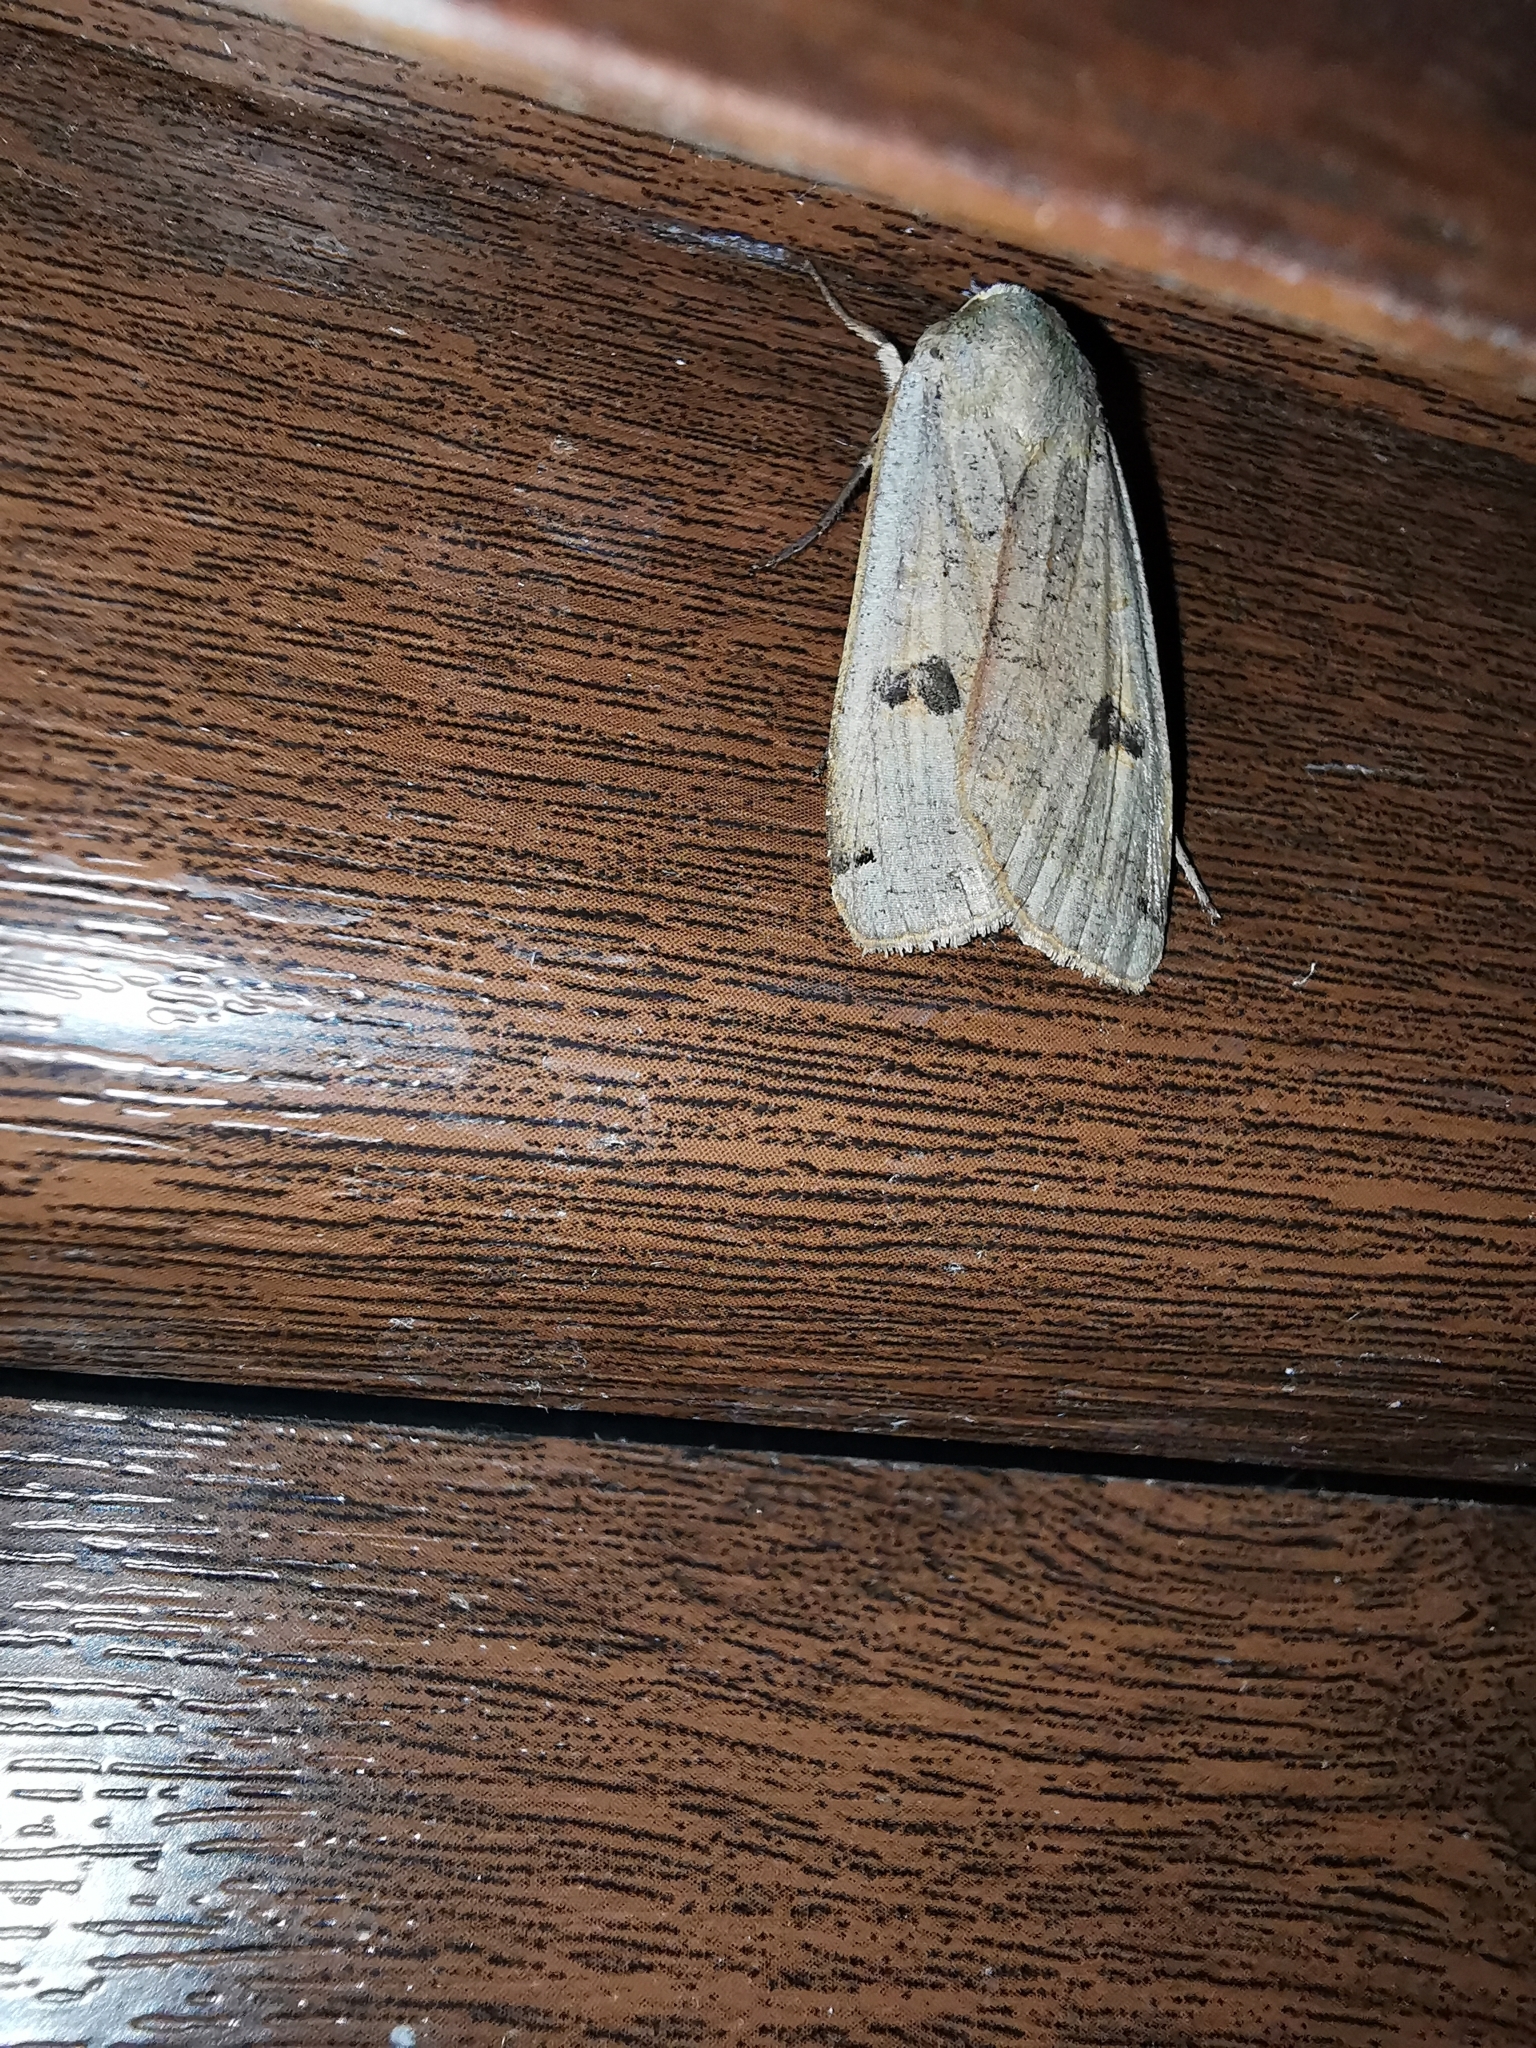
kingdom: Animalia
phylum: Arthropoda
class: Insecta
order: Lepidoptera
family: Noctuidae
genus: Noctua
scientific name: Noctua pronuba
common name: Large yellow underwing
